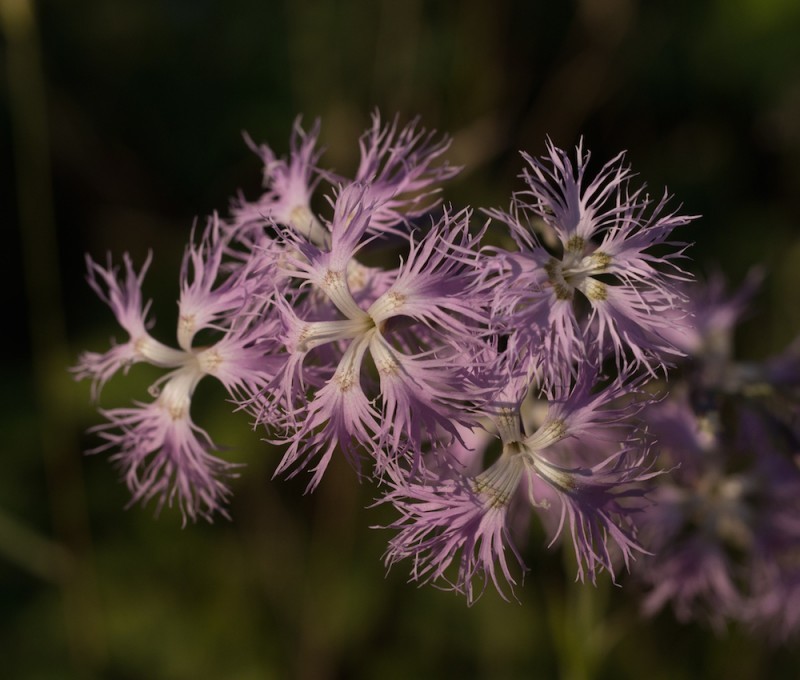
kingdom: Plantae
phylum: Tracheophyta
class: Magnoliopsida
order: Caryophyllales
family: Caryophyllaceae
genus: Dianthus
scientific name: Dianthus superbus
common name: Fringed pink
